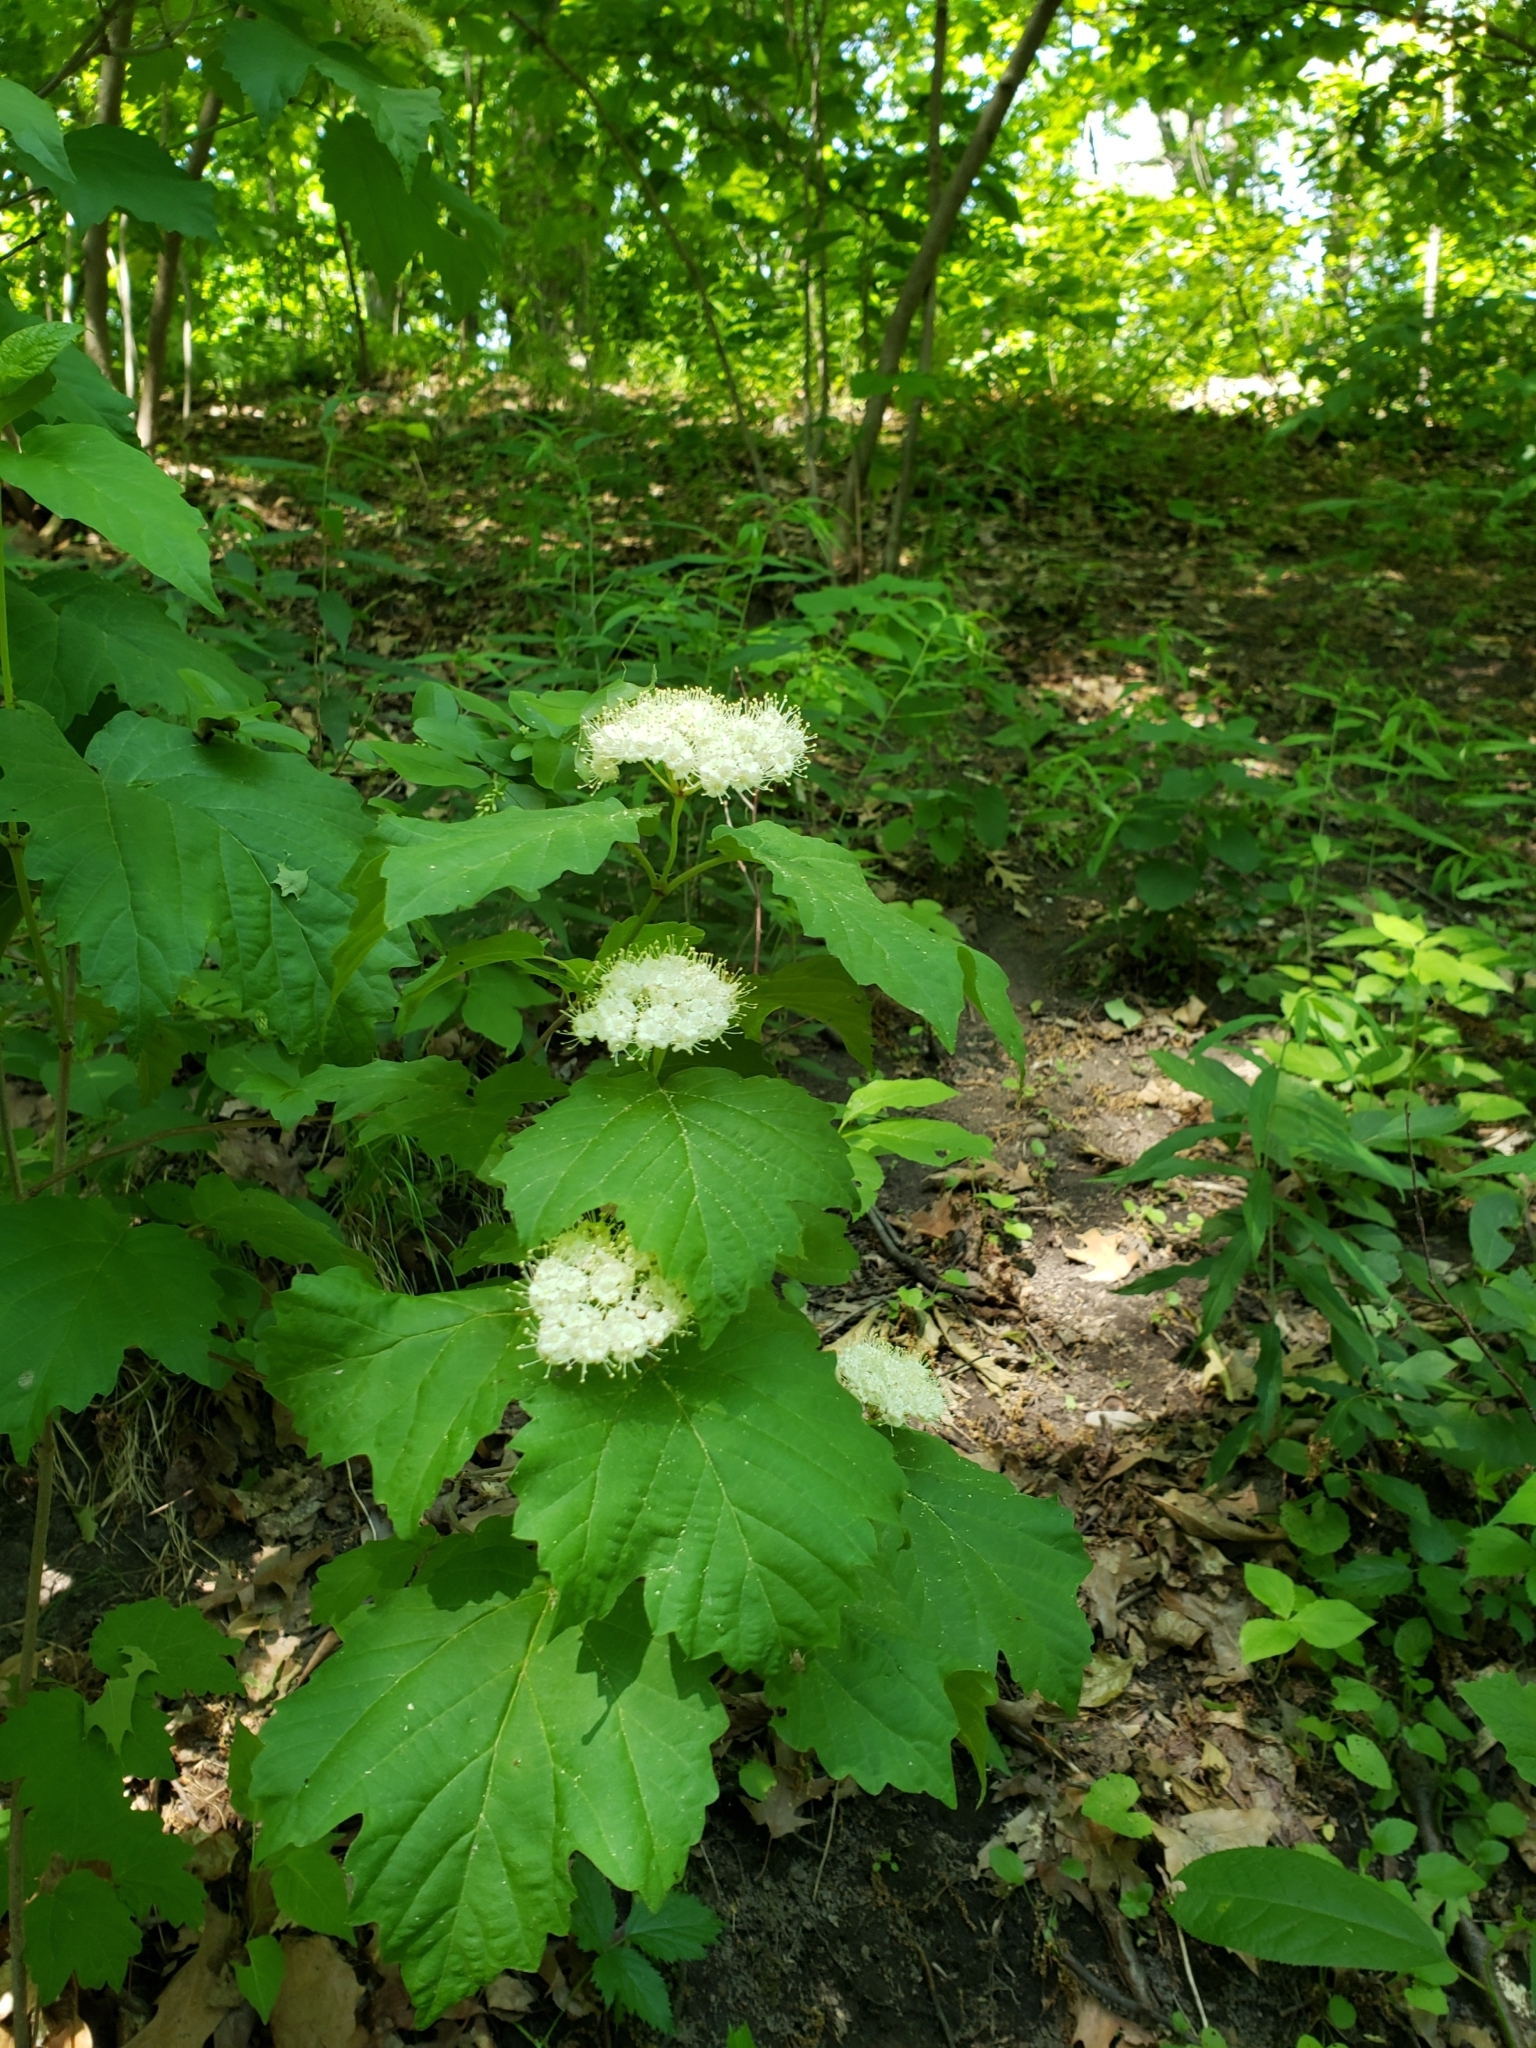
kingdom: Plantae
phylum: Tracheophyta
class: Magnoliopsida
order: Dipsacales
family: Viburnaceae
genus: Viburnum
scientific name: Viburnum acerifolium
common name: Dockmackie
